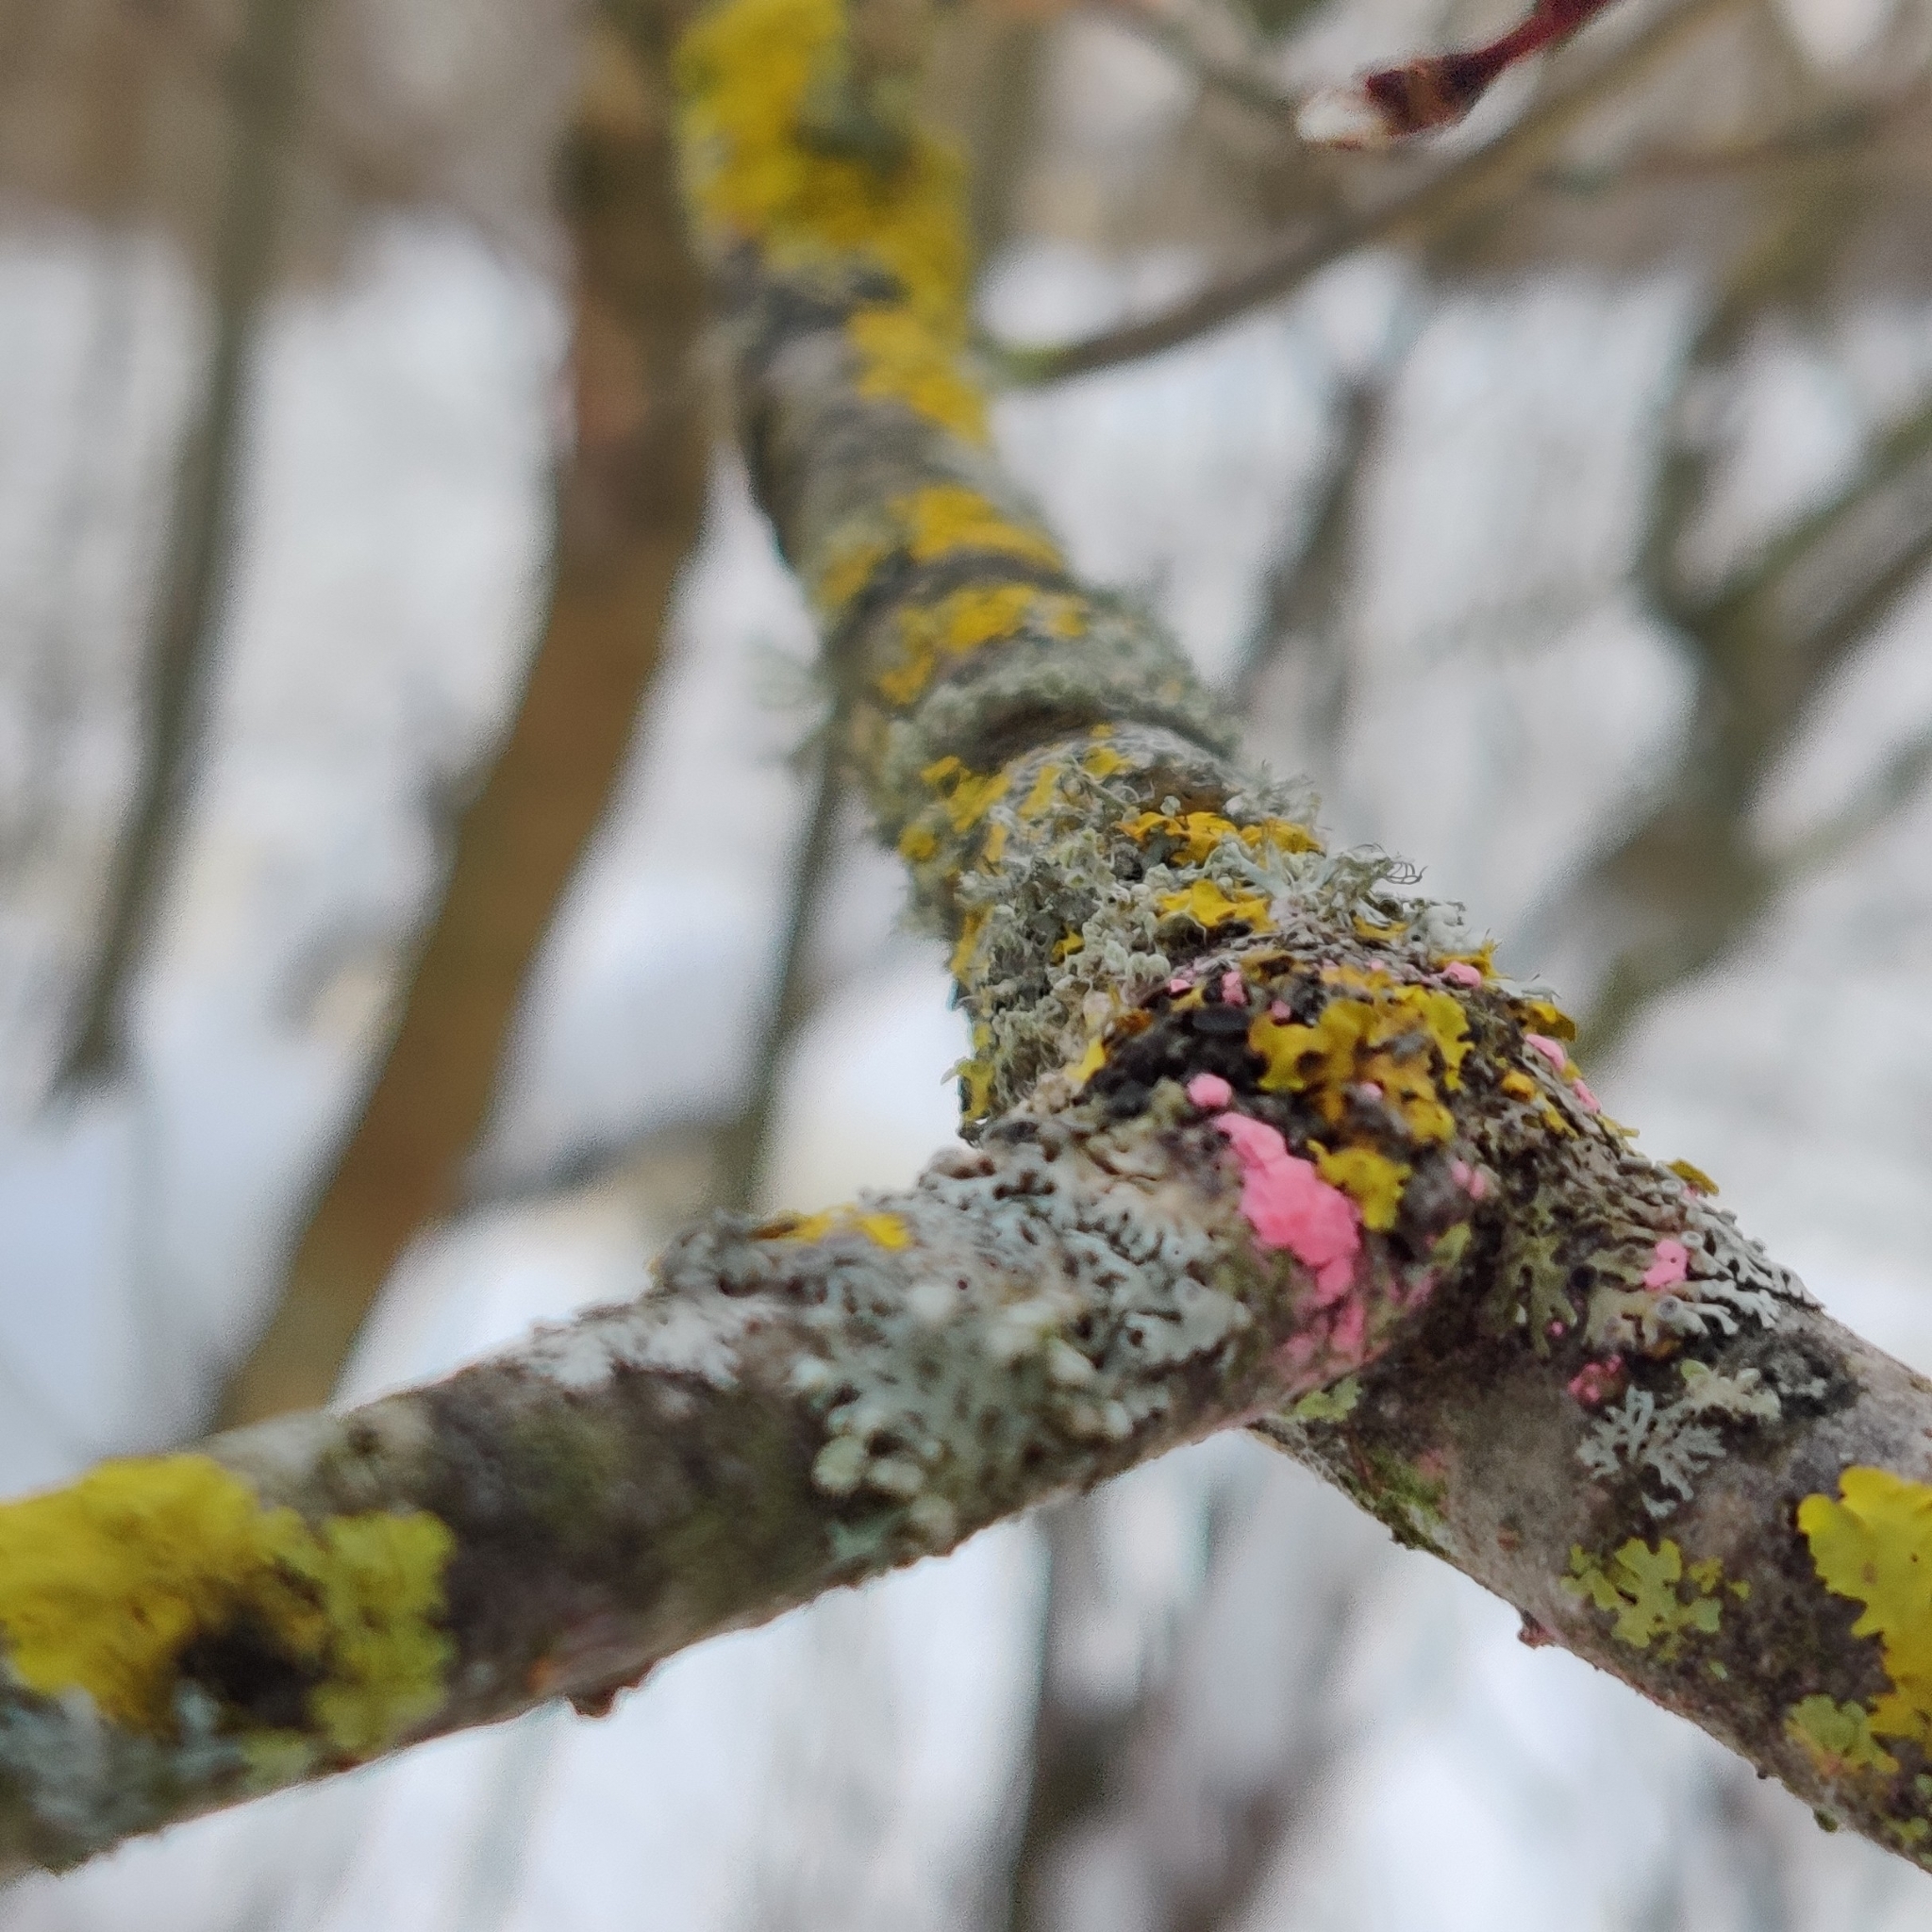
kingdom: Fungi
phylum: Ascomycota
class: Sordariomycetes
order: Hypocreales
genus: Illosporiopsis
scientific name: Illosporiopsis christiansenii
